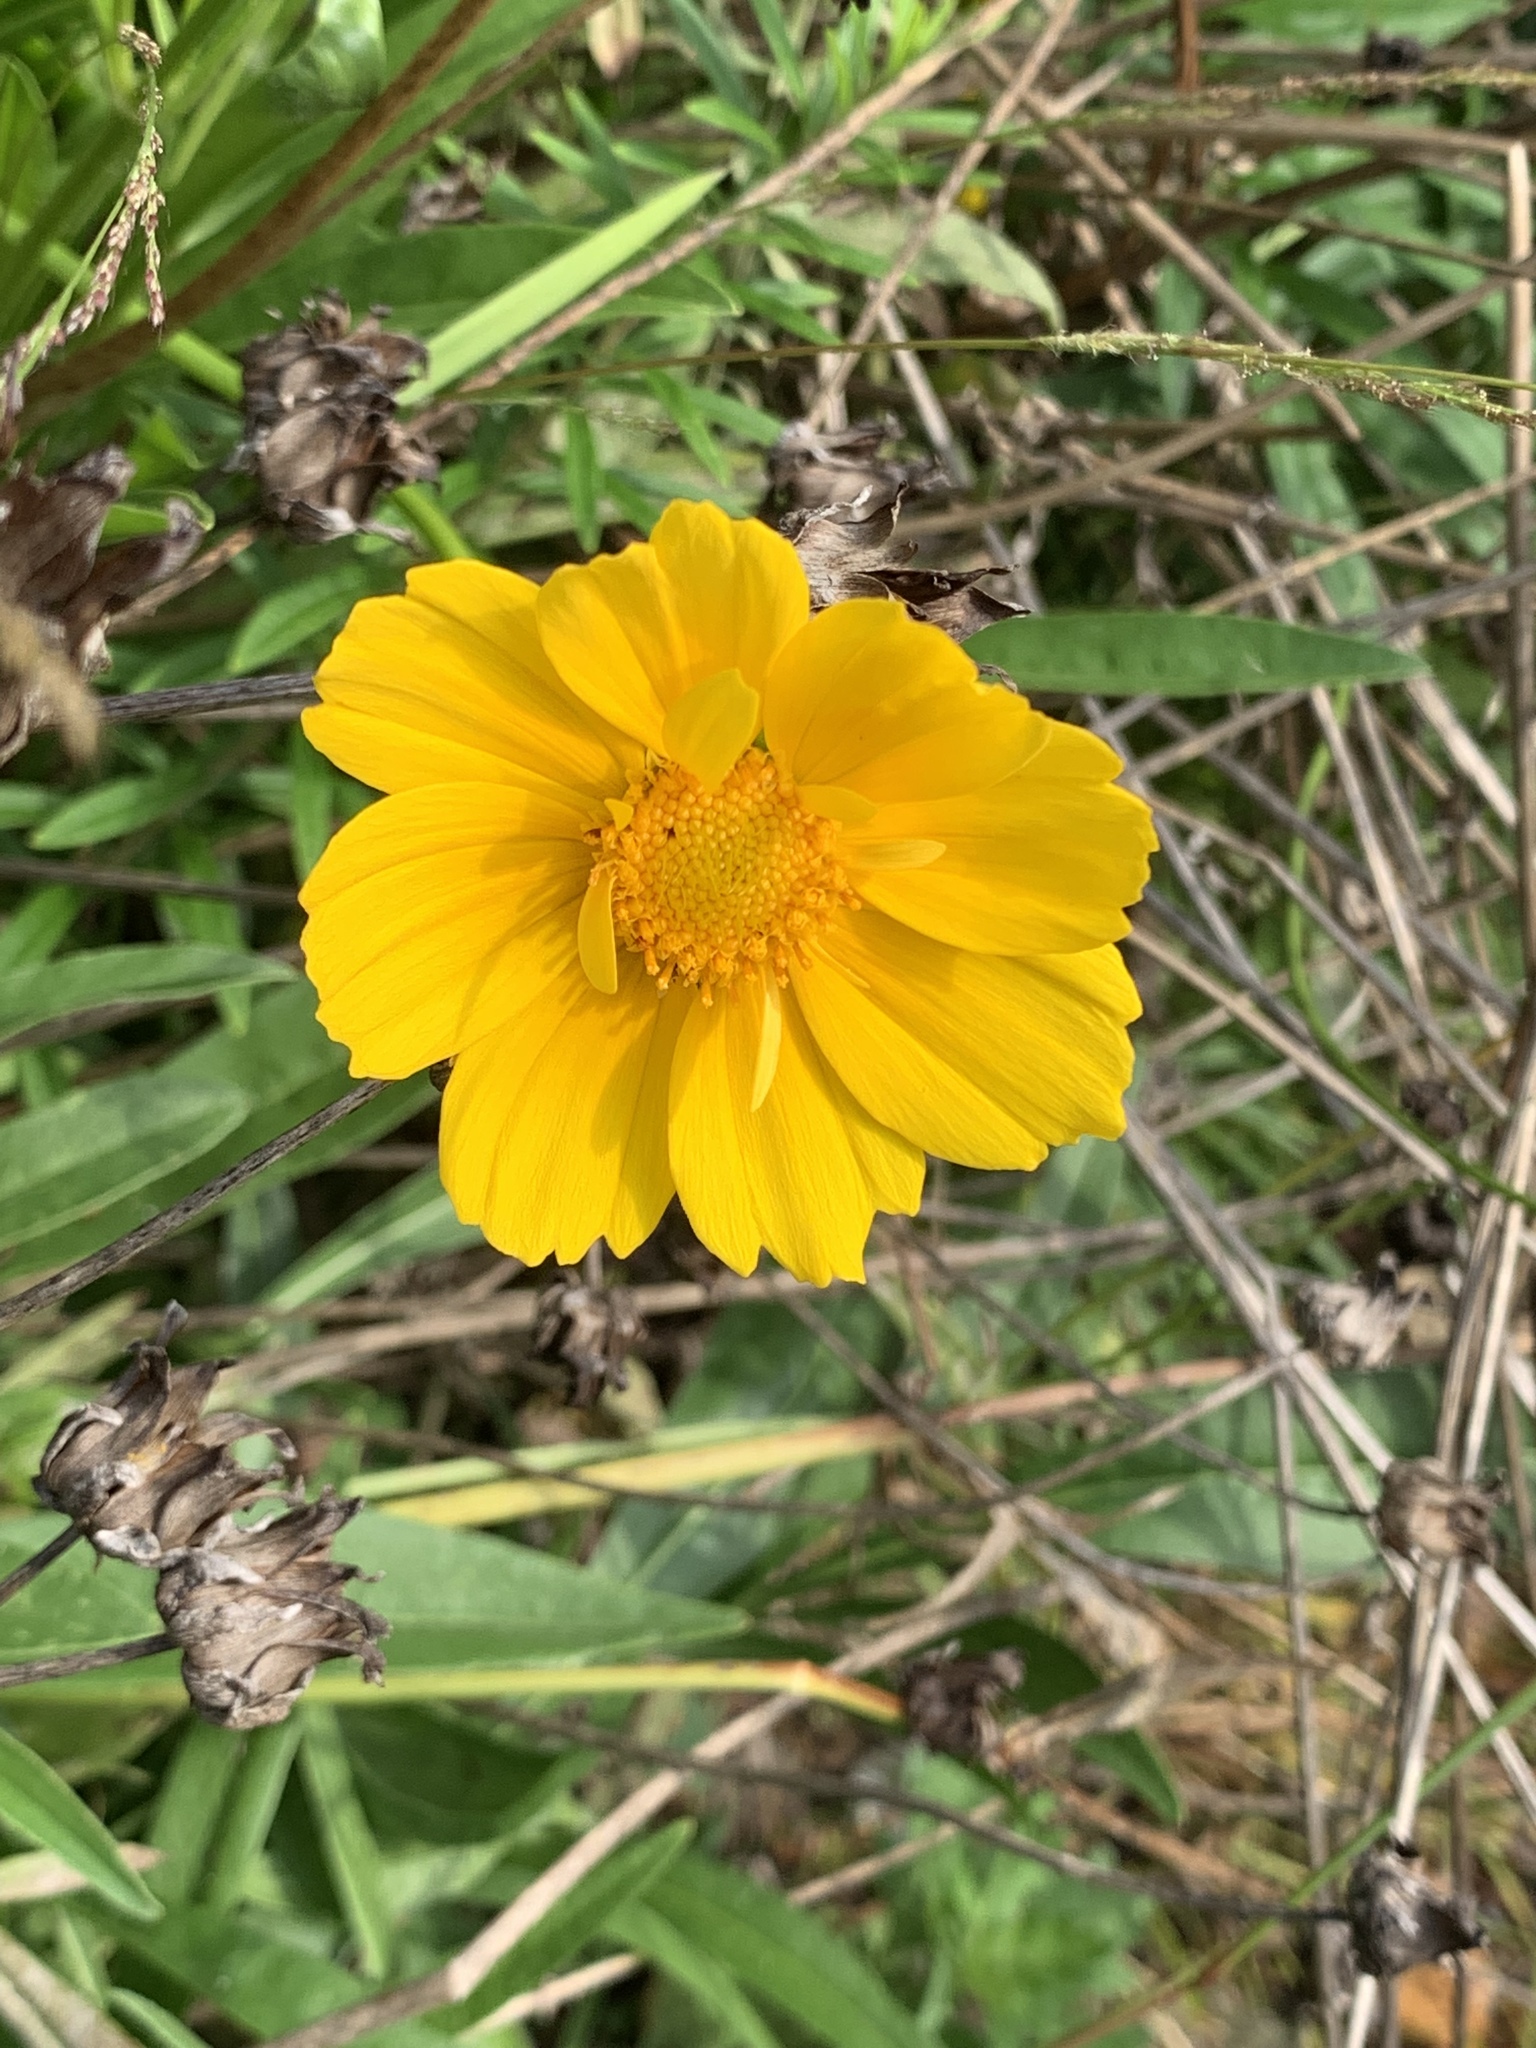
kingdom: Plantae
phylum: Tracheophyta
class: Magnoliopsida
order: Asterales
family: Asteraceae
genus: Coreopsis
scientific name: Coreopsis lanceolata
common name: Garden coreopsis
